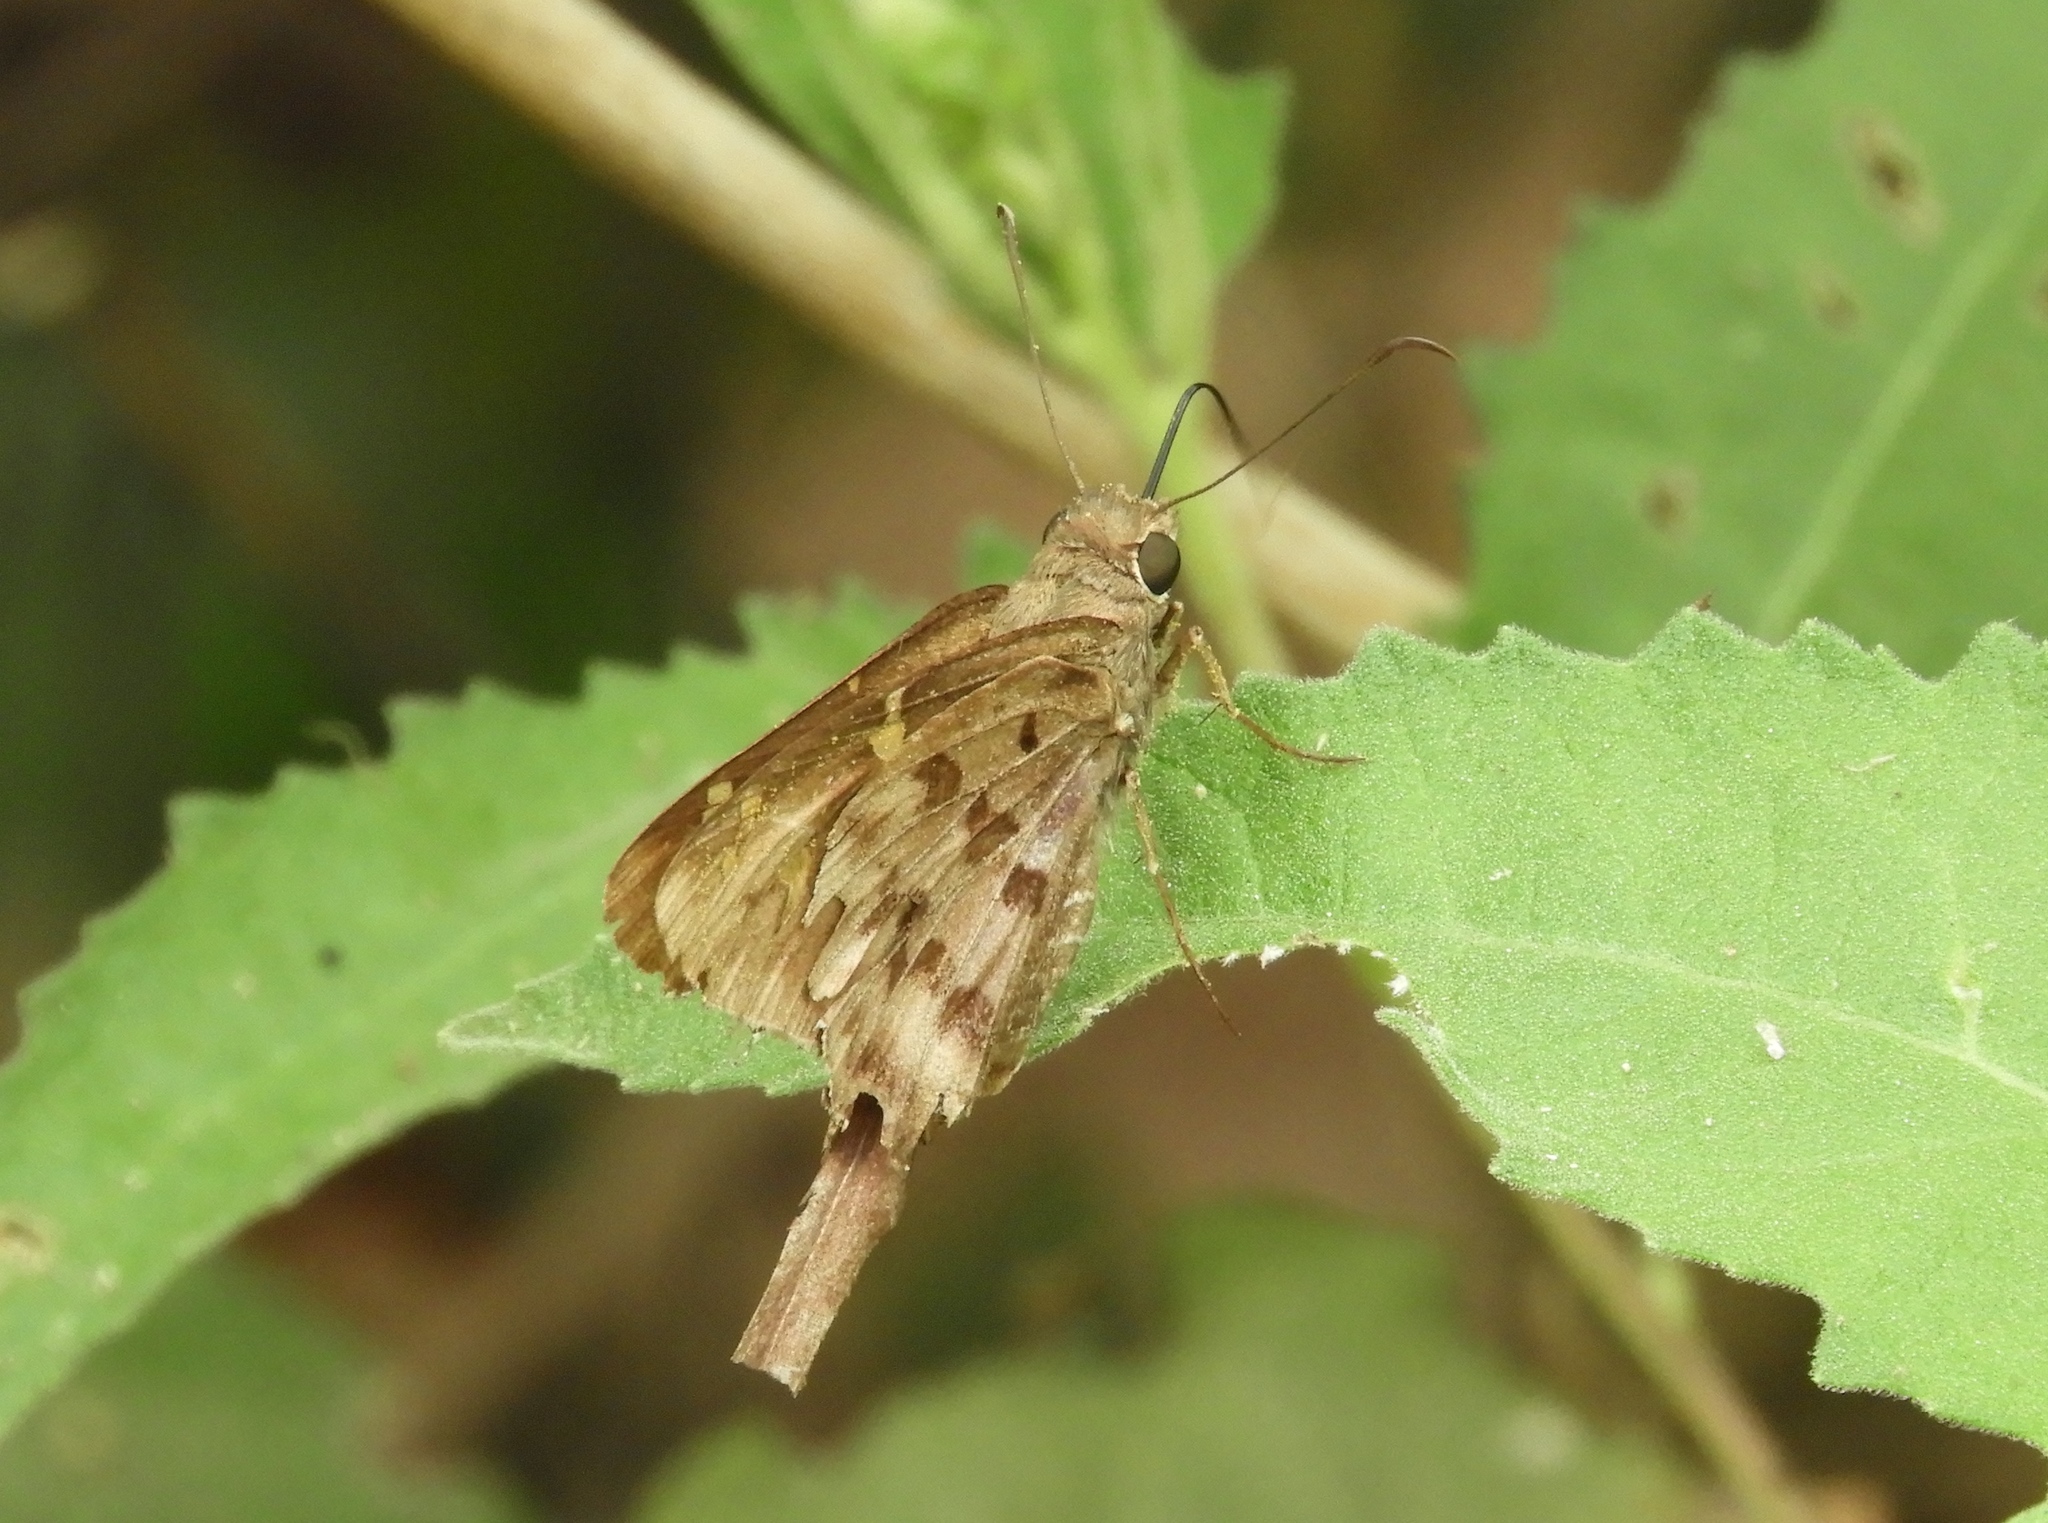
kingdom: Animalia
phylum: Arthropoda
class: Insecta
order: Lepidoptera
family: Hesperiidae
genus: Thorybes
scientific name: Thorybes
